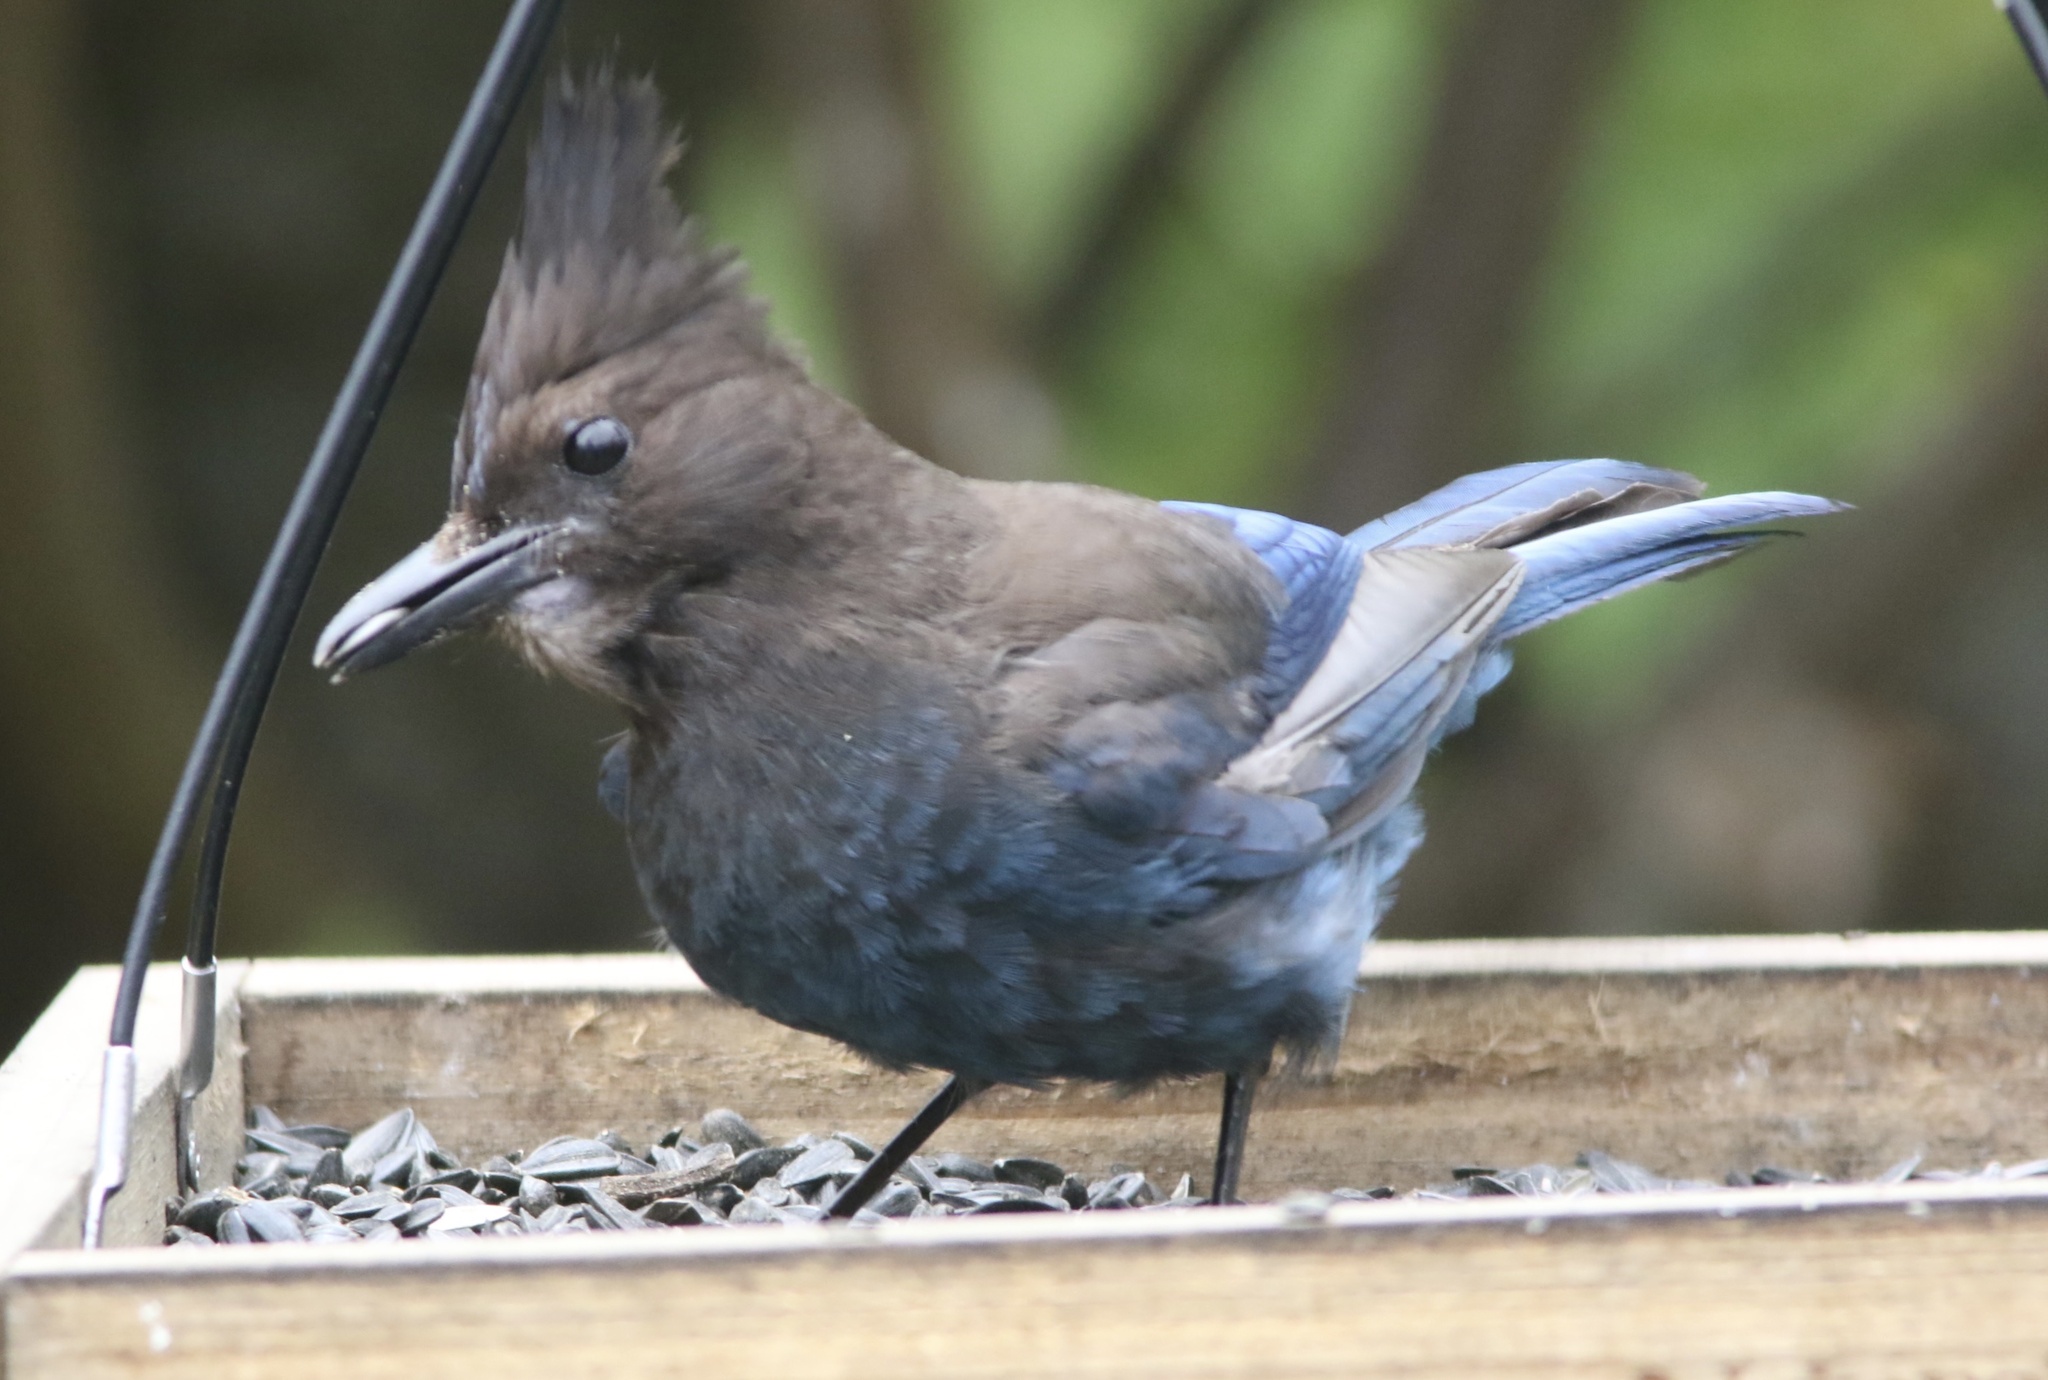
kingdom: Animalia
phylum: Chordata
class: Aves
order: Passeriformes
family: Corvidae
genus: Cyanocitta
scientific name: Cyanocitta stelleri
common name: Steller's jay
